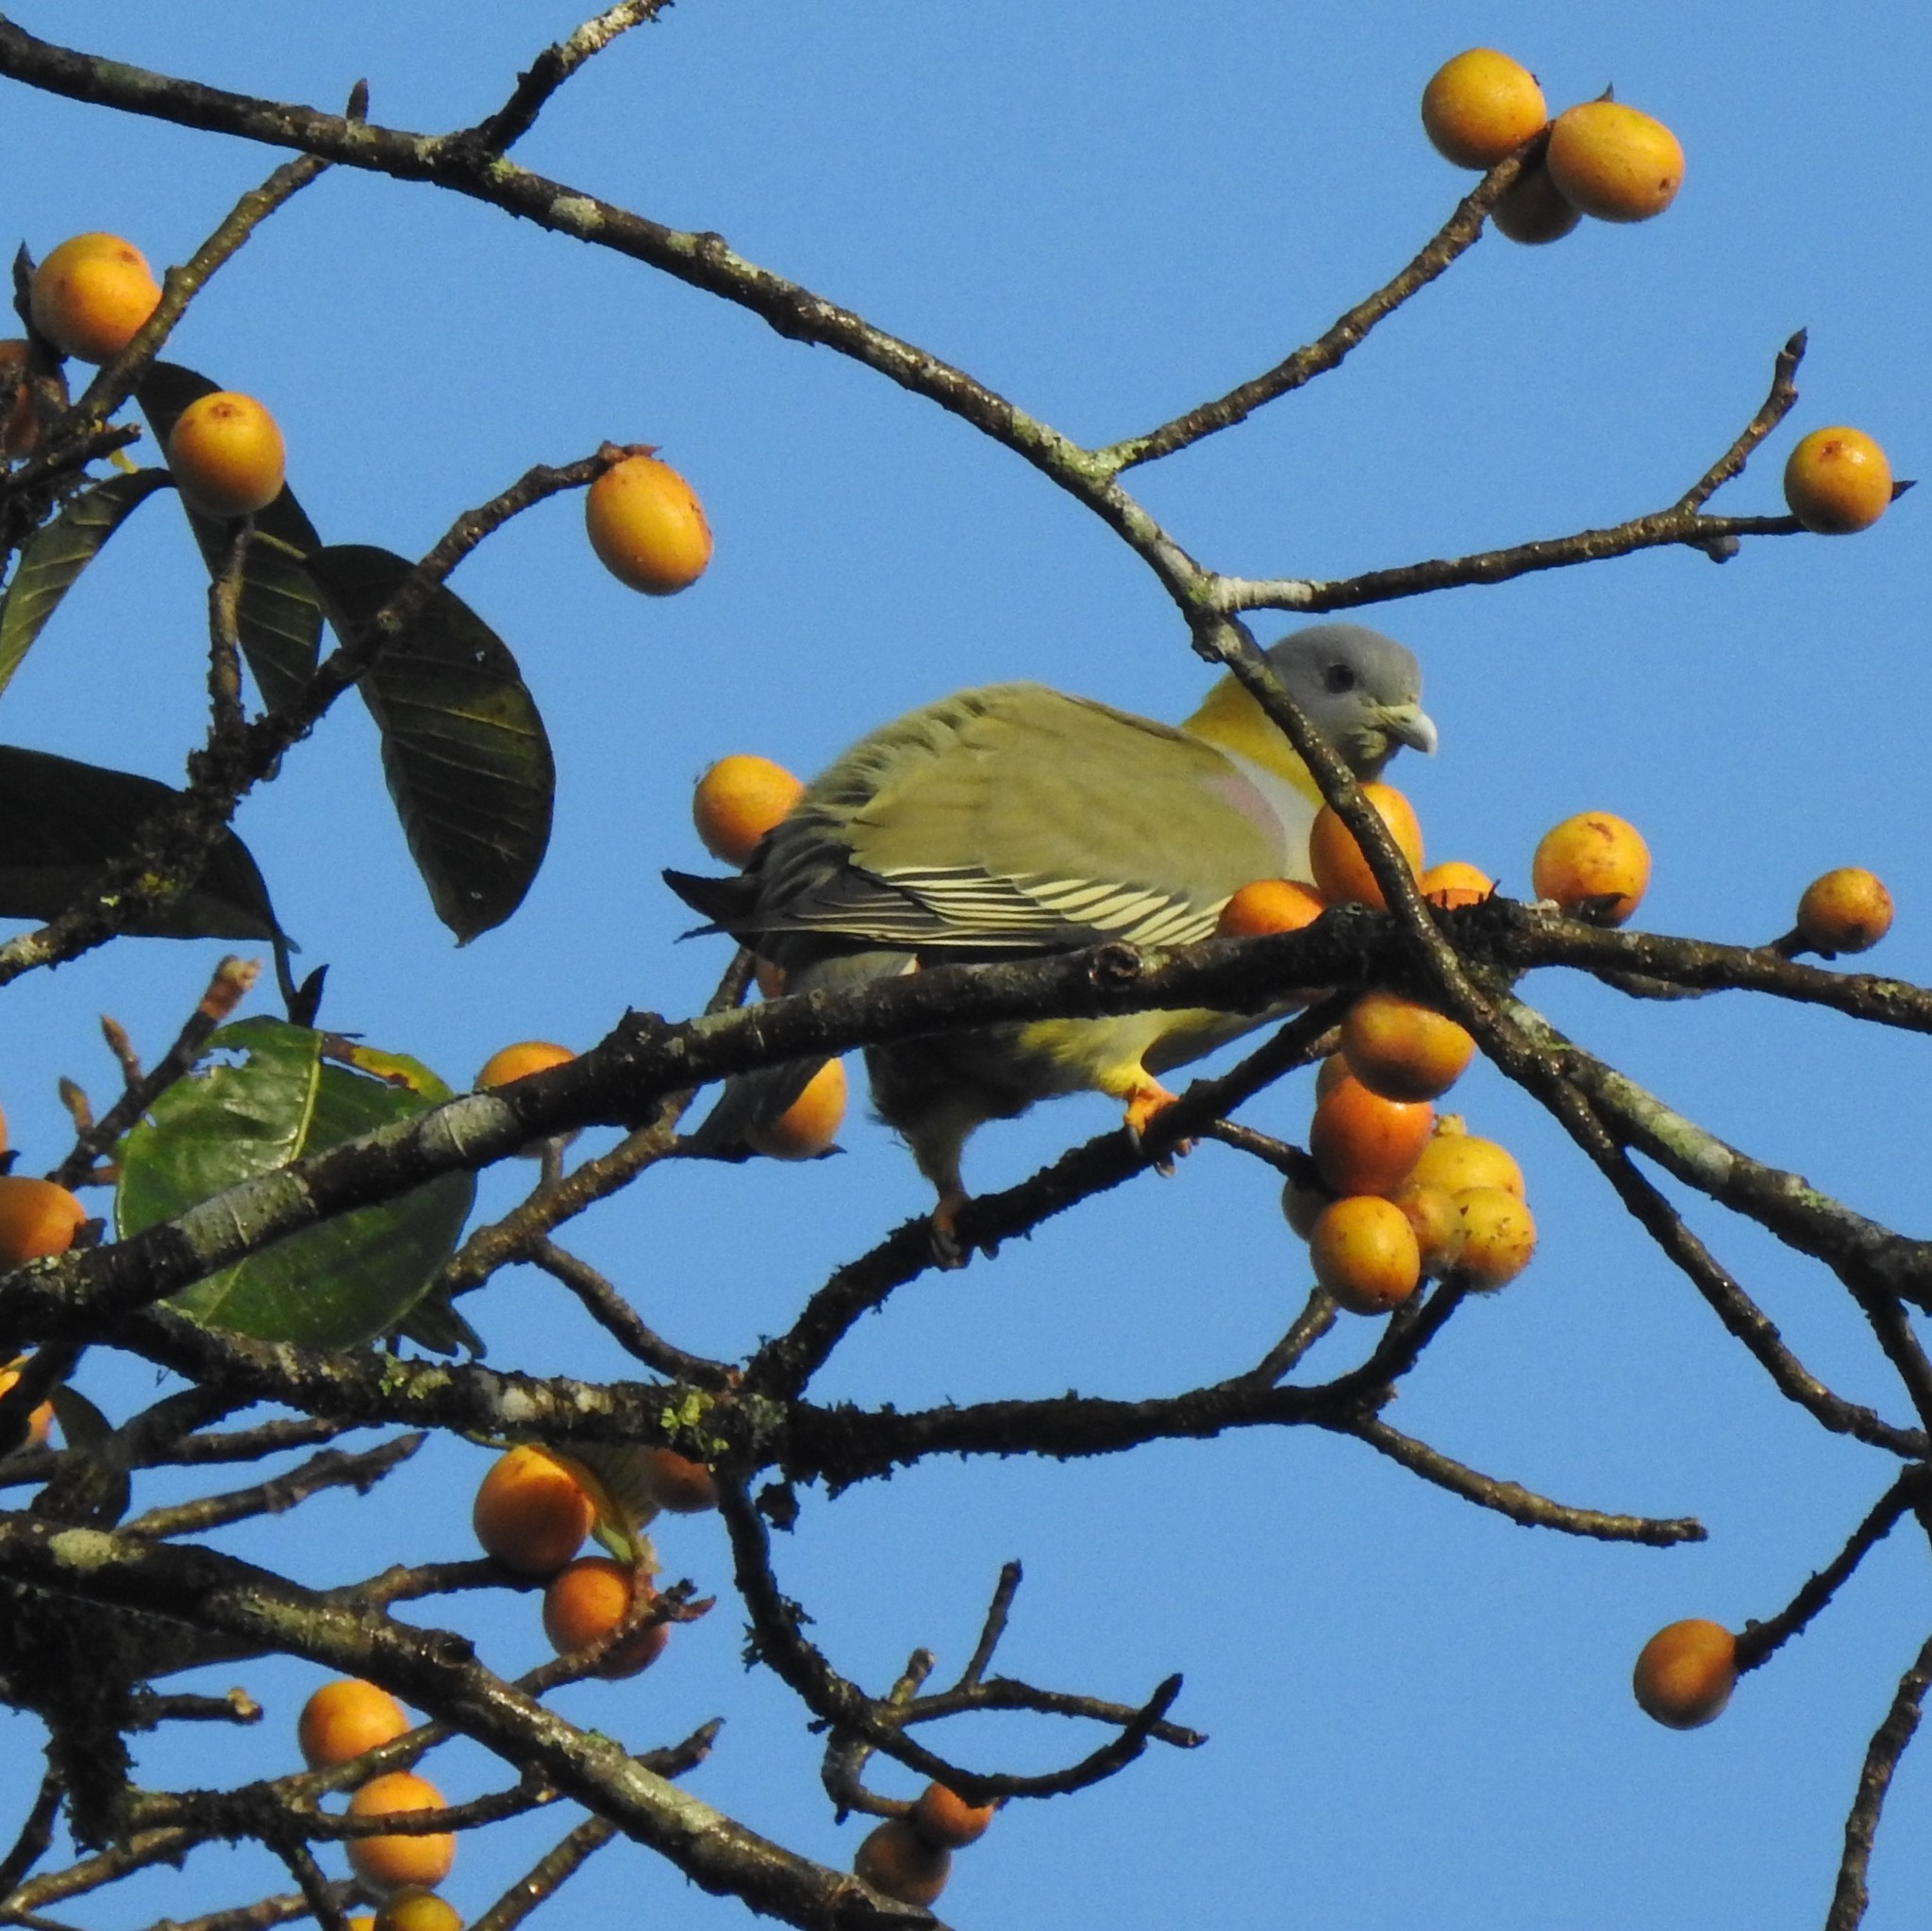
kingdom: Animalia
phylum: Chordata
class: Aves
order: Columbiformes
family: Columbidae
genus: Treron
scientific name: Treron phoenicopterus
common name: Yellow-footed green pigeon
